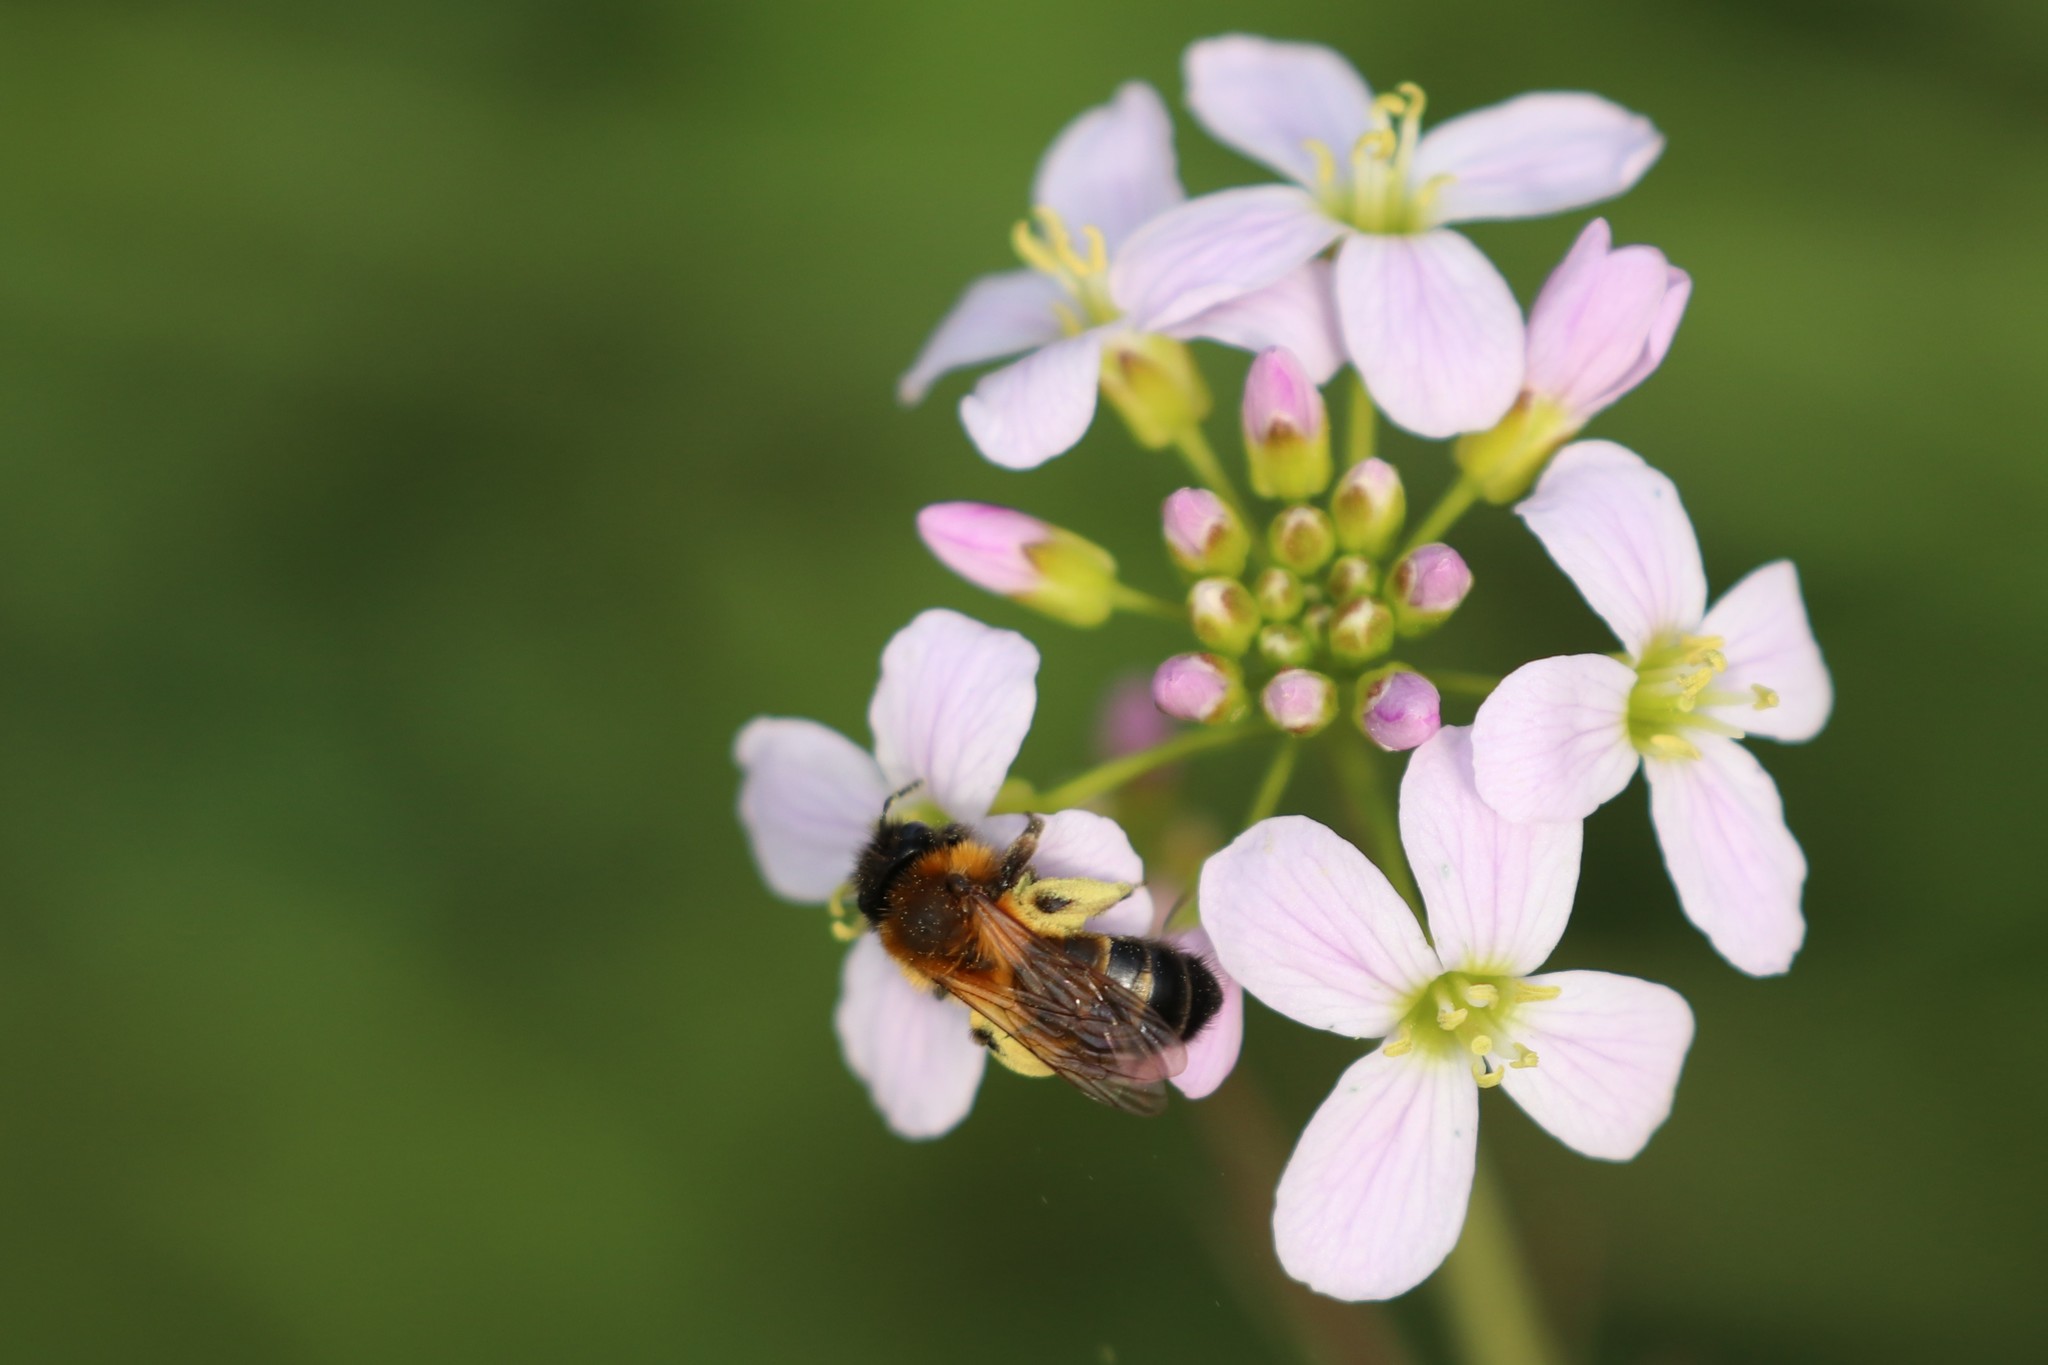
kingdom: Animalia
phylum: Arthropoda
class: Insecta
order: Hymenoptera
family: Andrenidae
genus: Andrena
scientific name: Andrena bicolor
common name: Gwynne's mining bee
